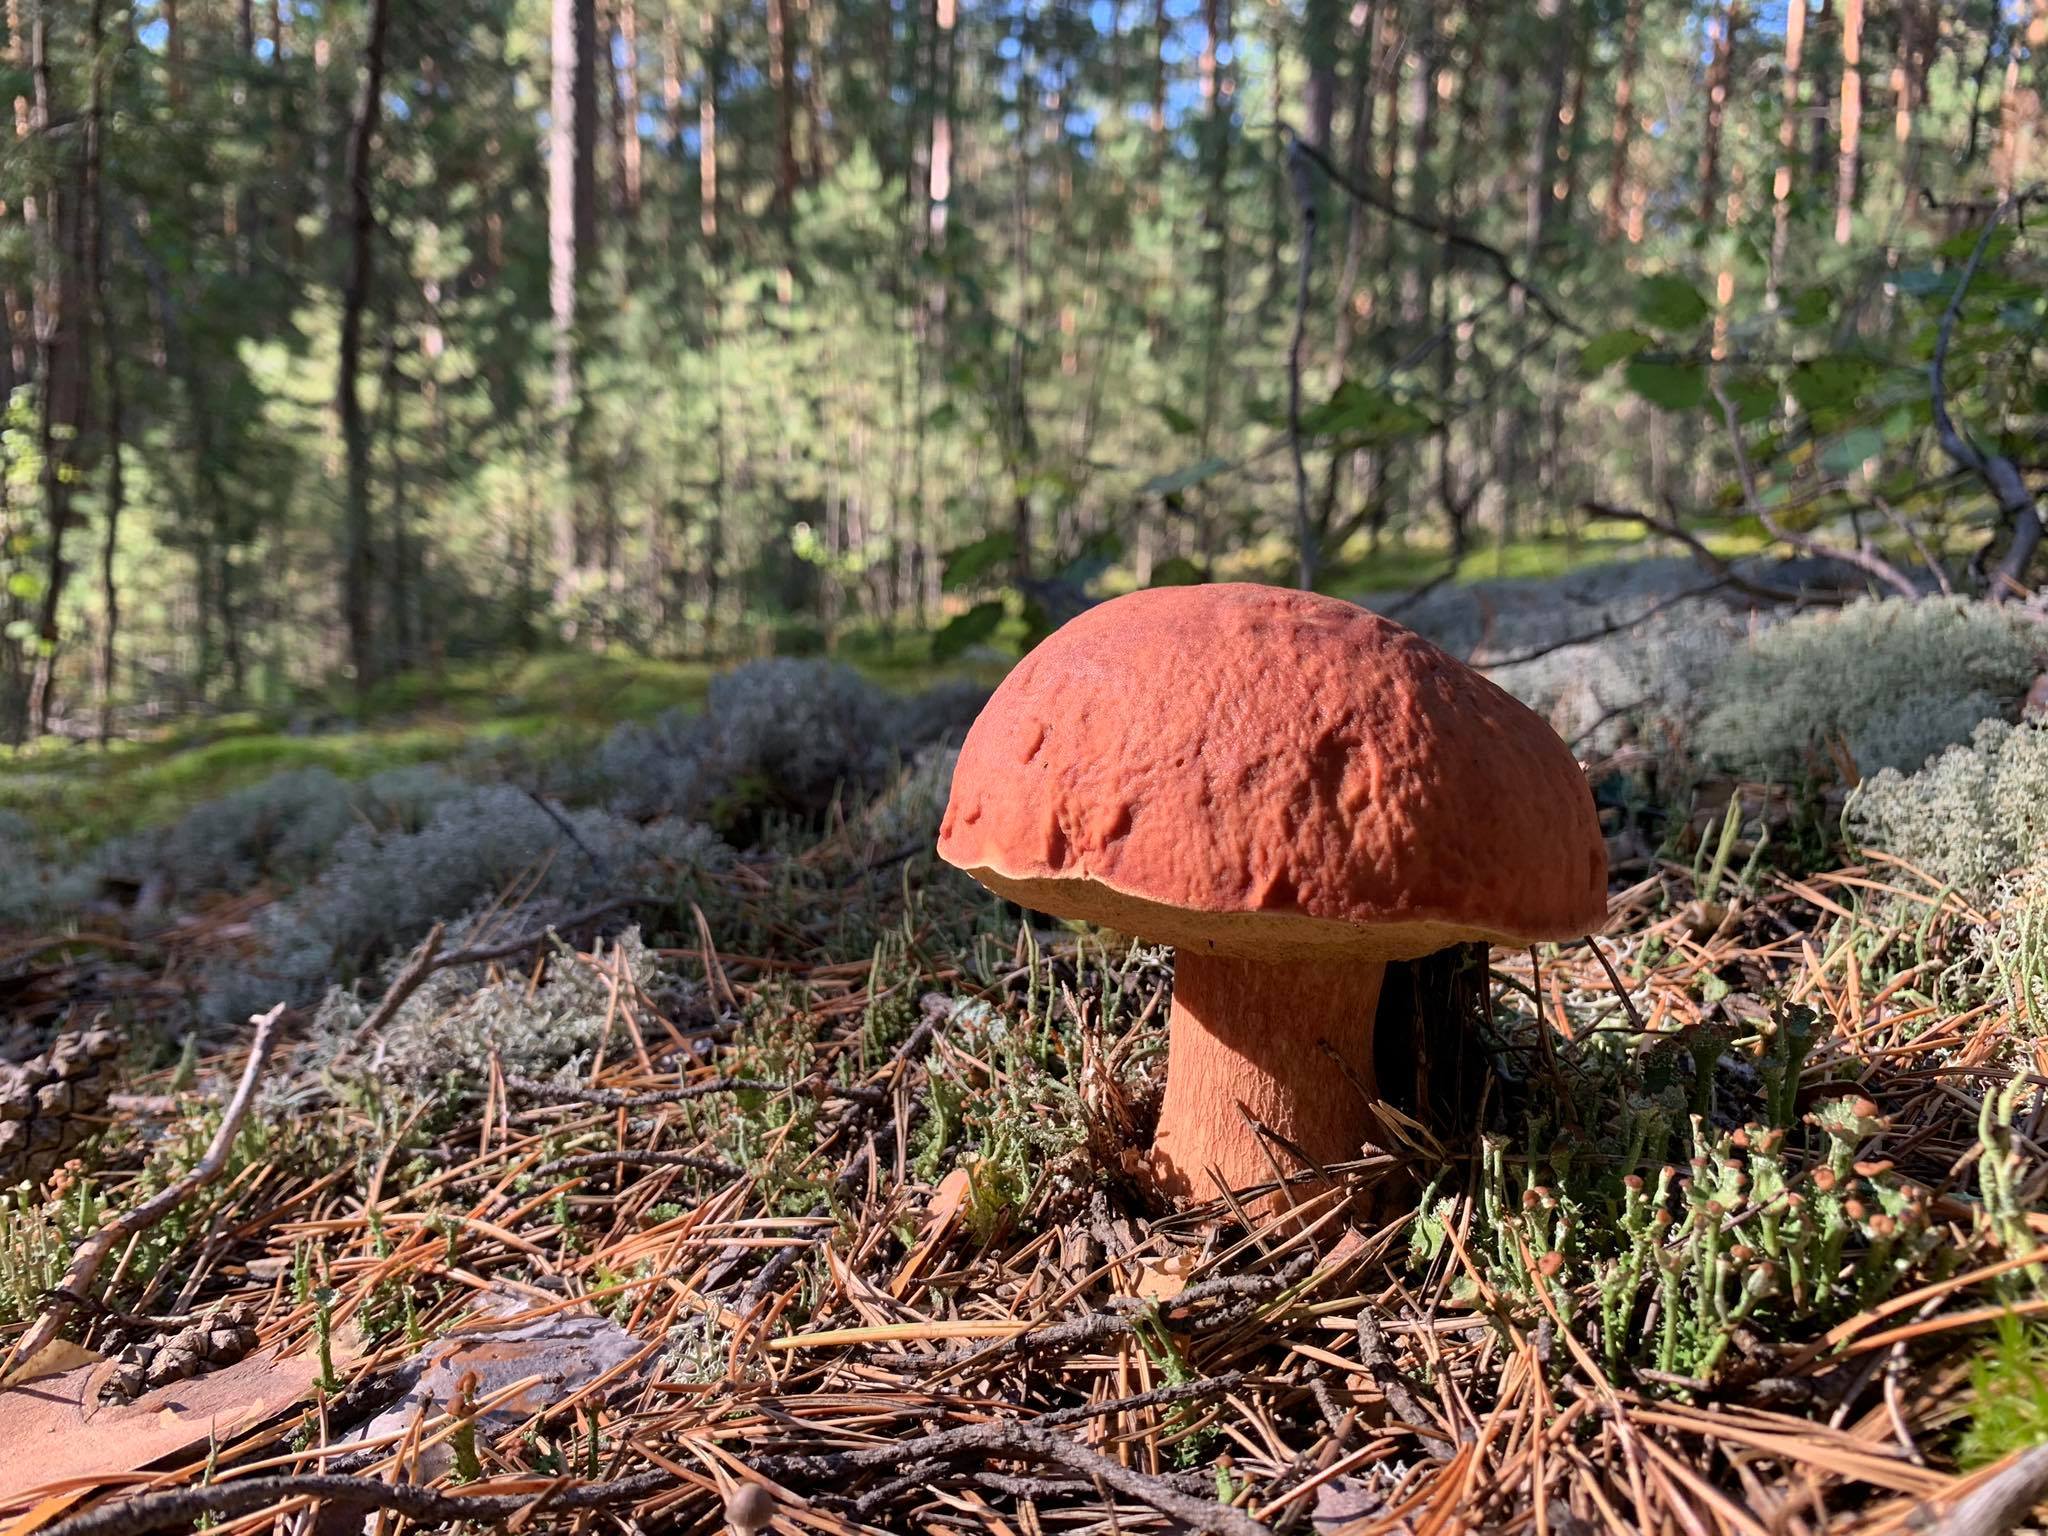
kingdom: Fungi
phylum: Basidiomycota
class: Agaricomycetes
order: Boletales
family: Boletaceae
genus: Boletus
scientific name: Boletus pinophilus
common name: Pine bolete
